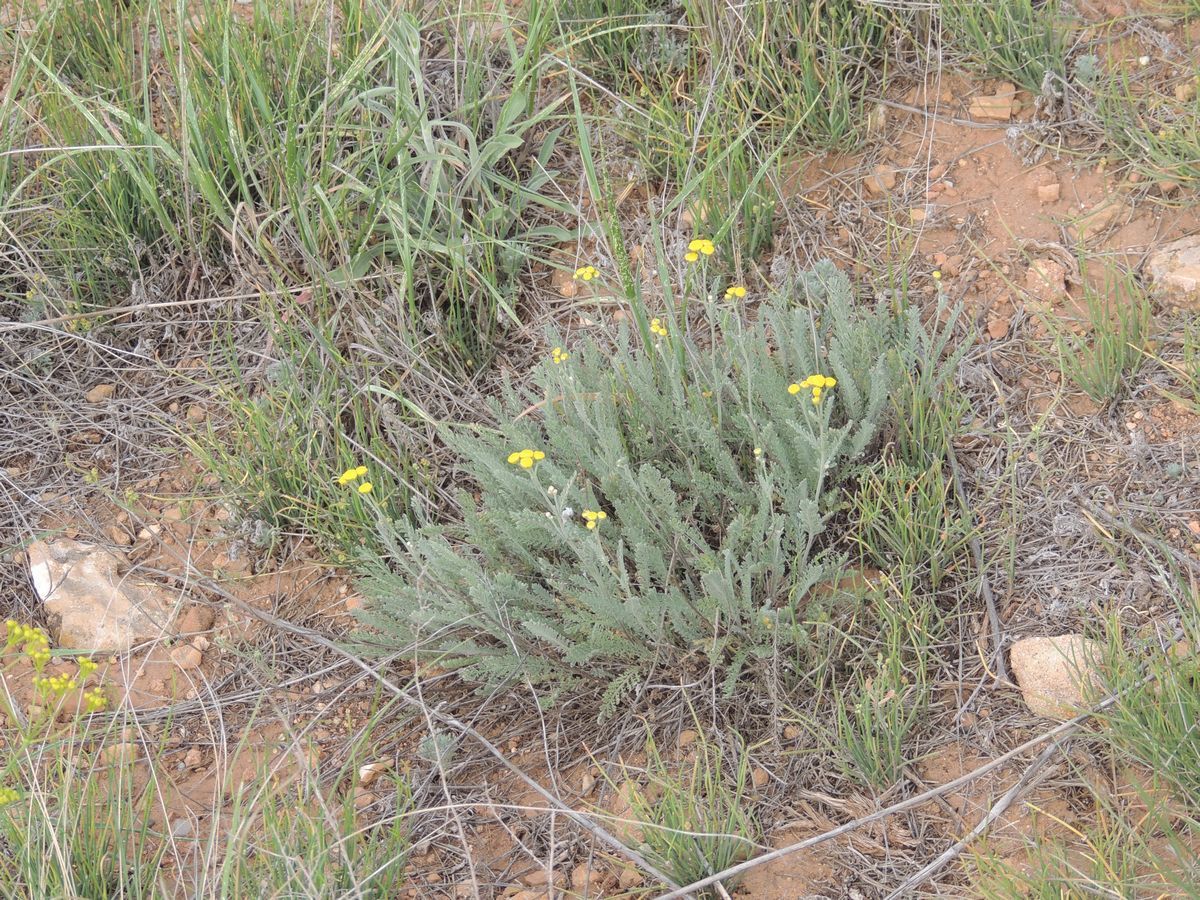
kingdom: Plantae
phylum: Tracheophyta
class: Magnoliopsida
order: Asterales
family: Asteraceae
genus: Tanacetum
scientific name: Tanacetum achilleifolium
